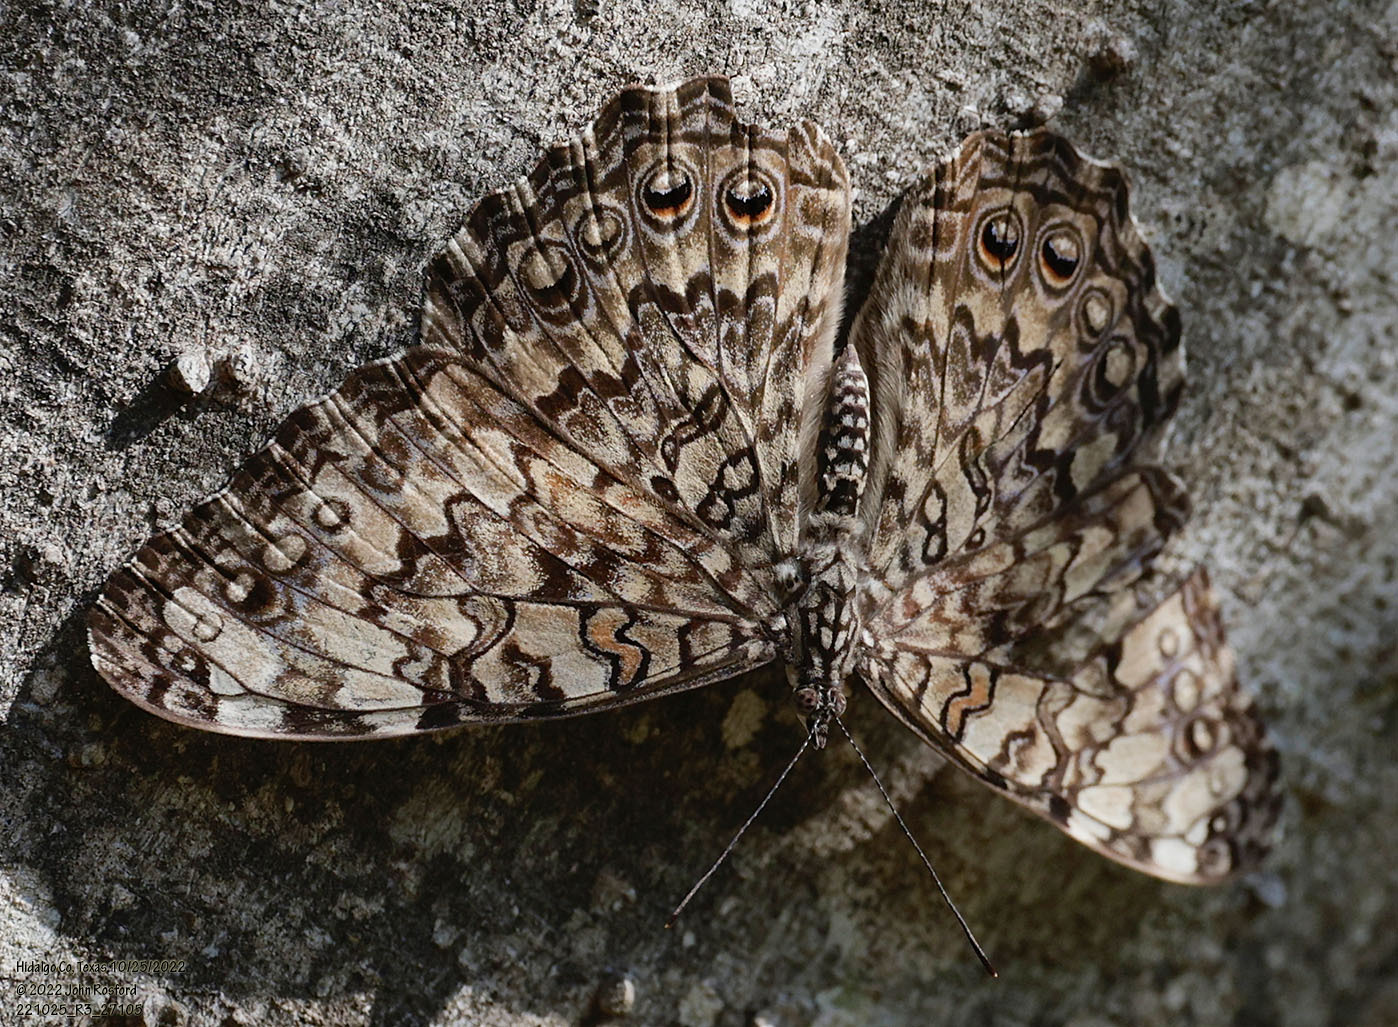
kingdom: Animalia
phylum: Arthropoda
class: Insecta
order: Lepidoptera
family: Nymphalidae
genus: Hamadryas
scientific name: Hamadryas februa
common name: Gray cracker
